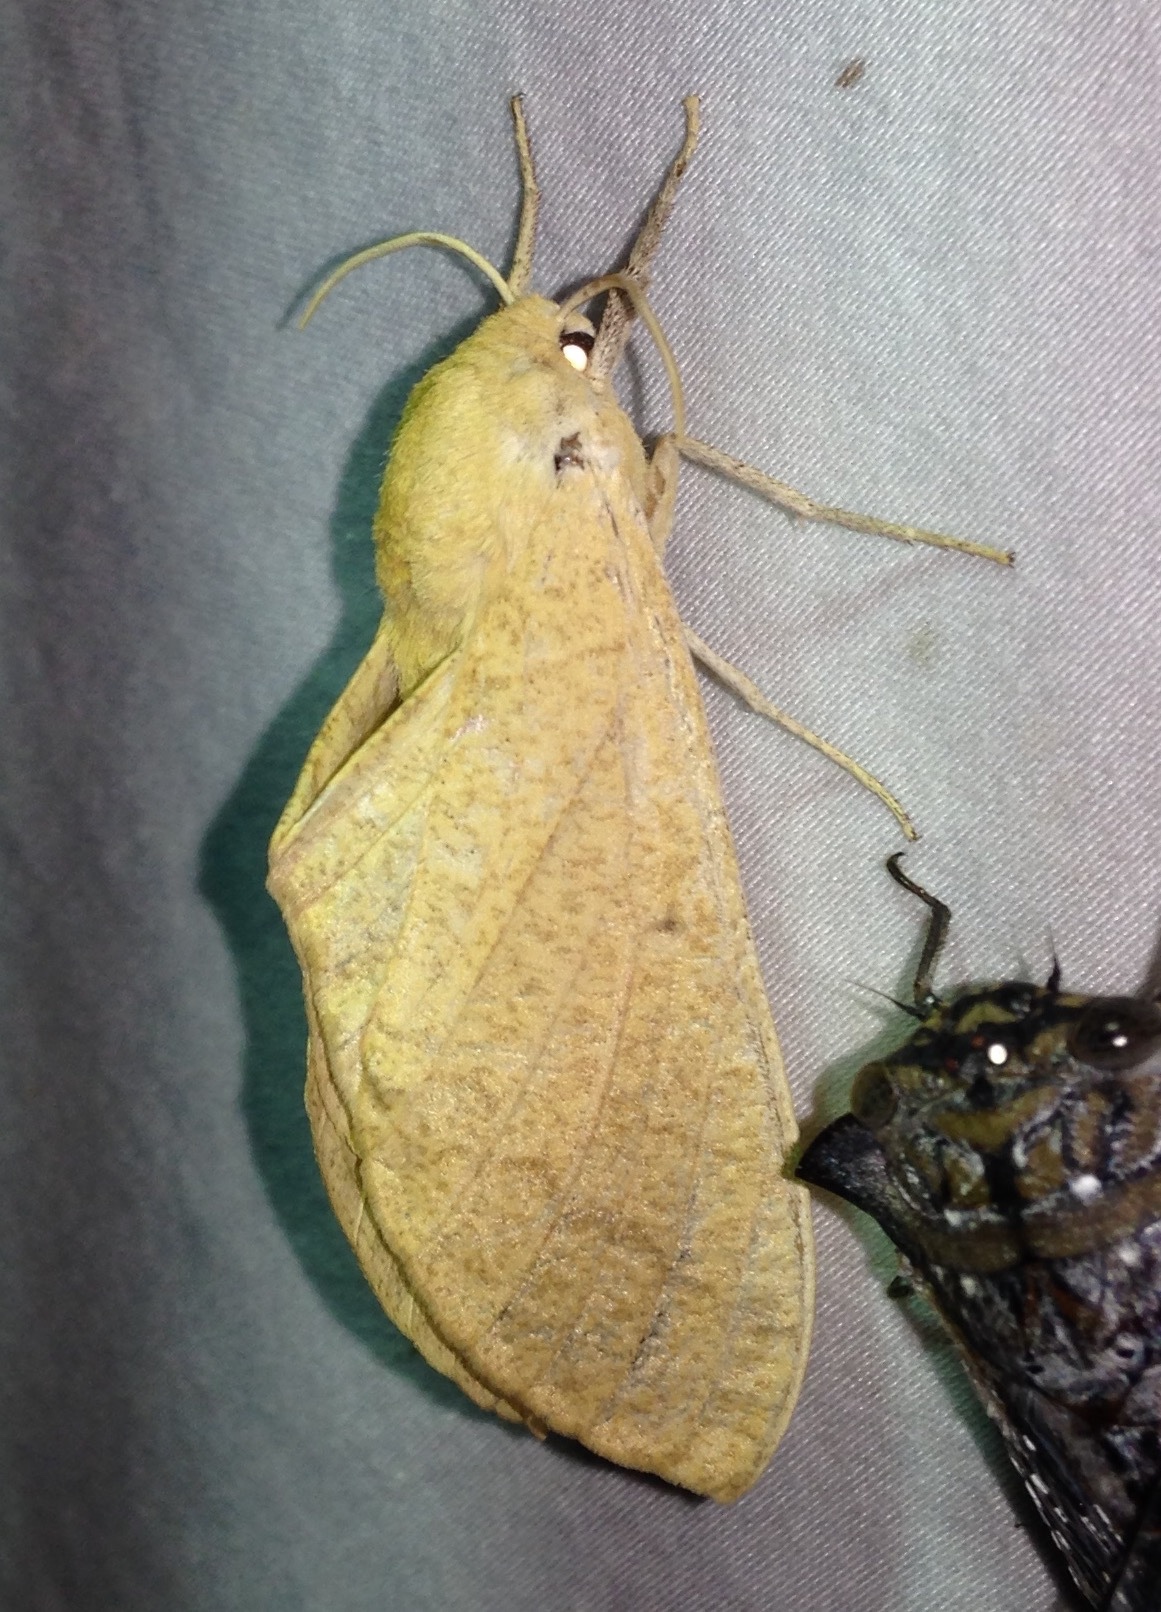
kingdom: Animalia
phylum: Arthropoda
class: Insecta
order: Lepidoptera
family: Sphingidae
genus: Neoclanis
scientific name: Neoclanis basalis
